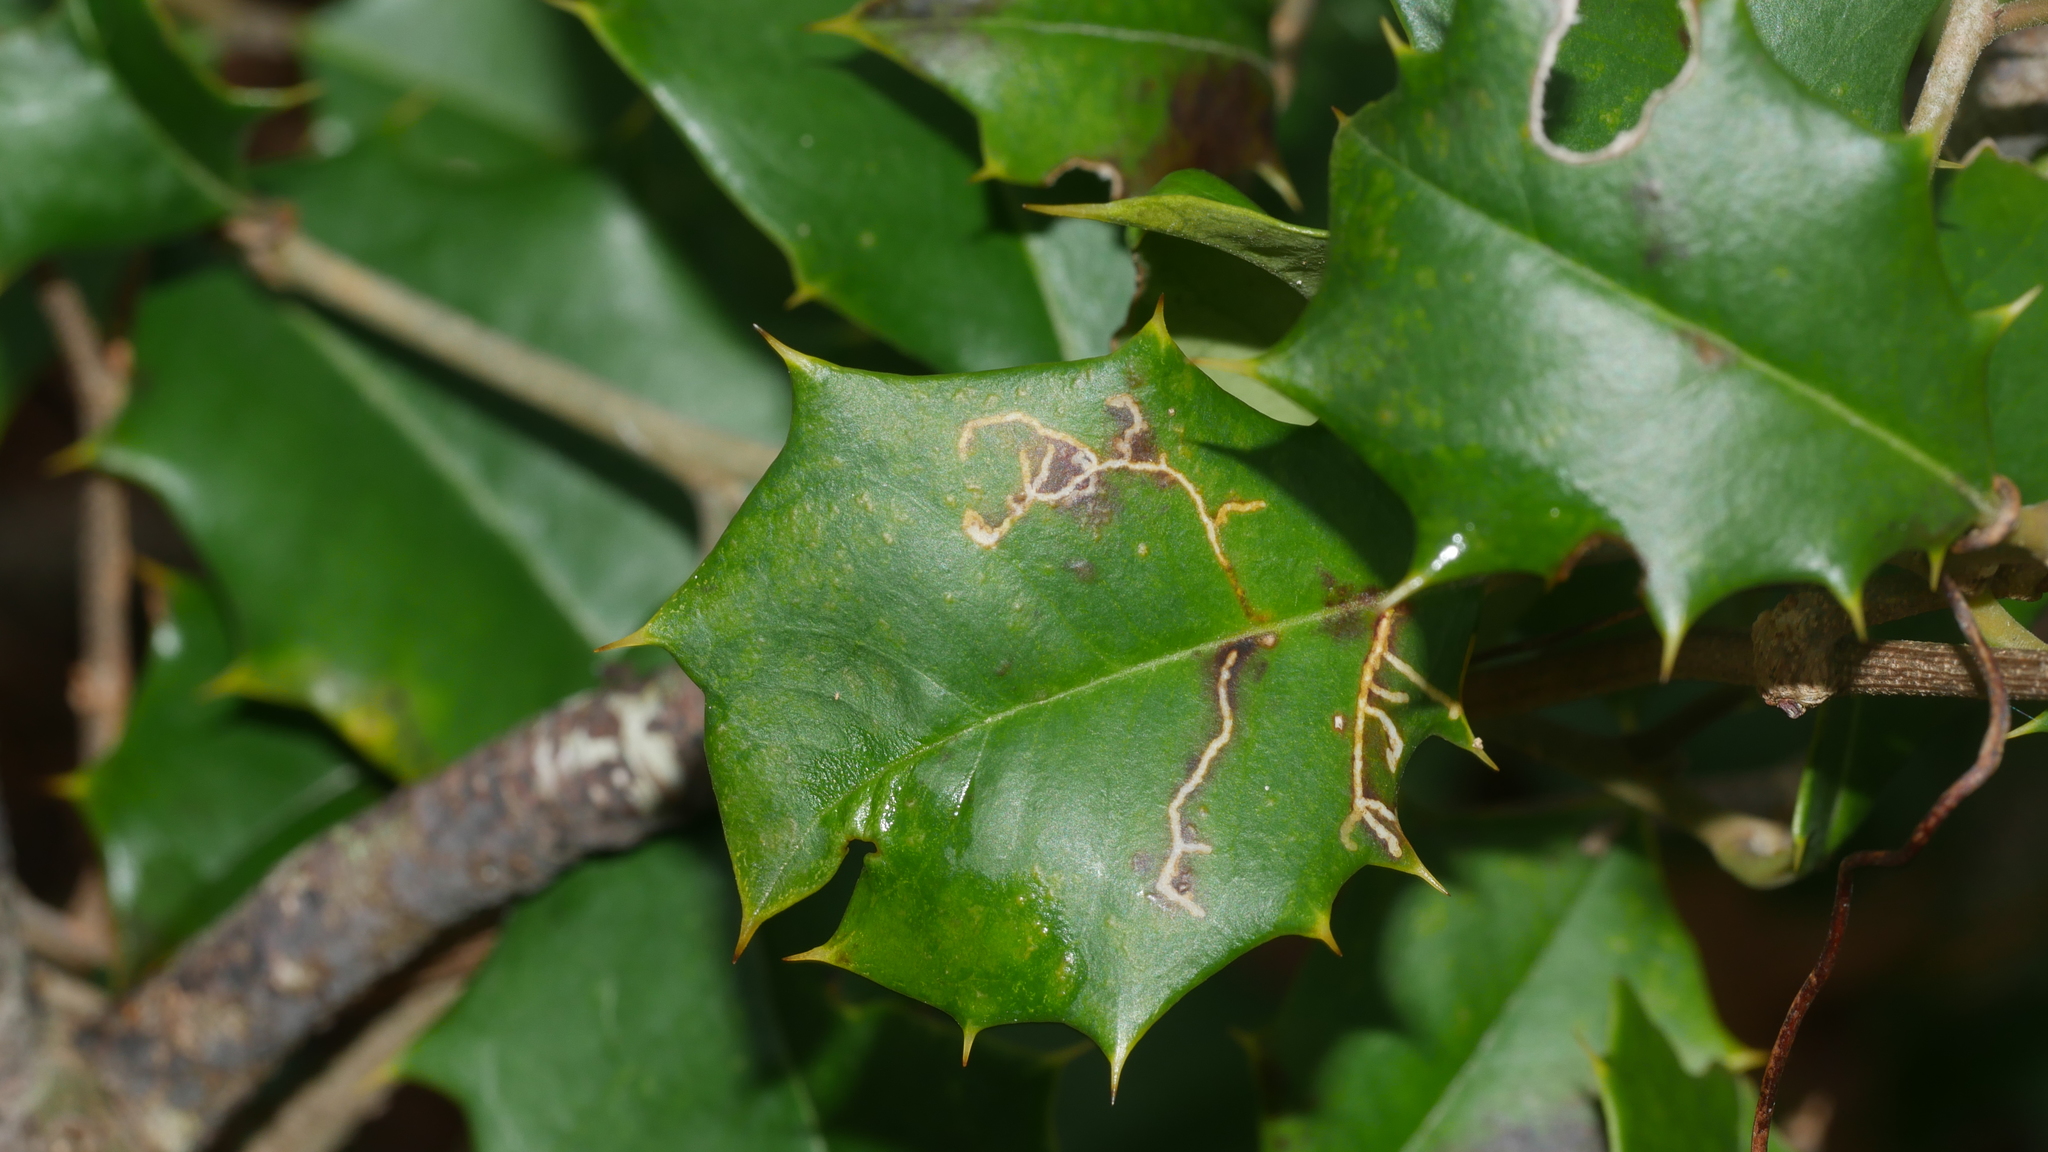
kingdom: Animalia
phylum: Arthropoda
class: Insecta
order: Lepidoptera
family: Tortricidae
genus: Rhopobota
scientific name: Rhopobota
